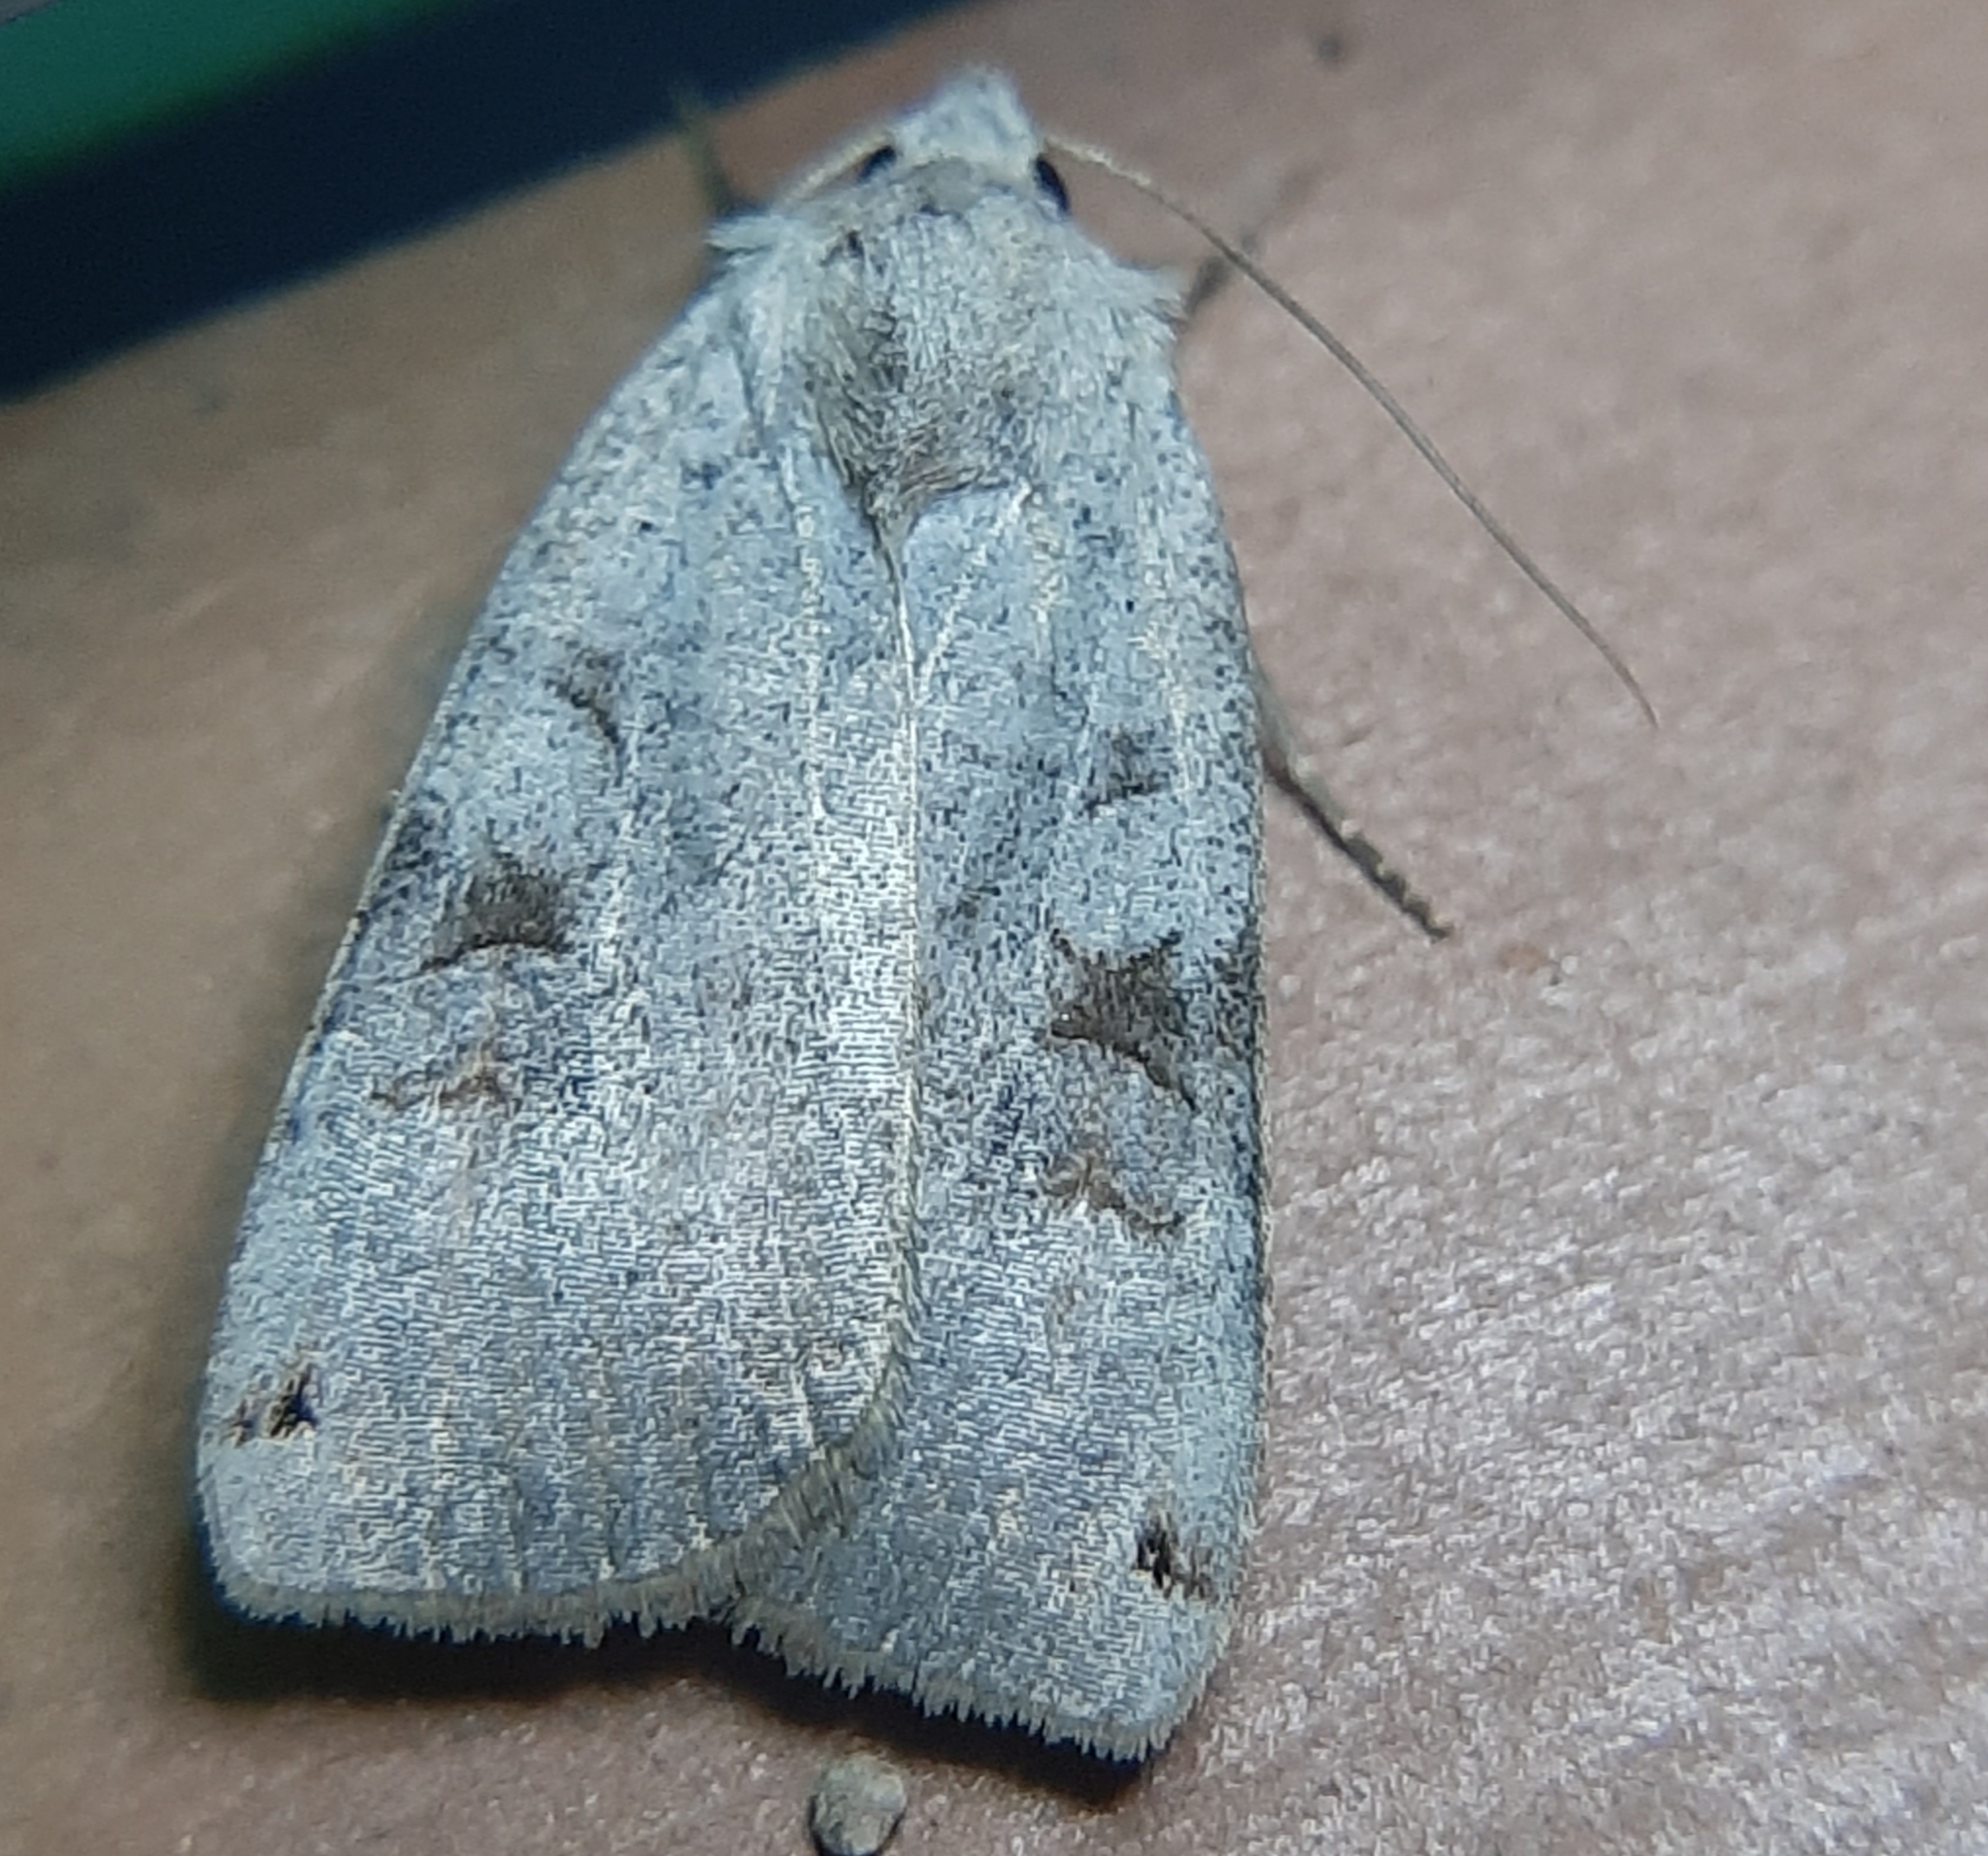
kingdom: Animalia
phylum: Arthropoda
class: Insecta
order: Lepidoptera
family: Noctuidae
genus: Xestia
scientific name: Xestia smithii
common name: Smith's dart
